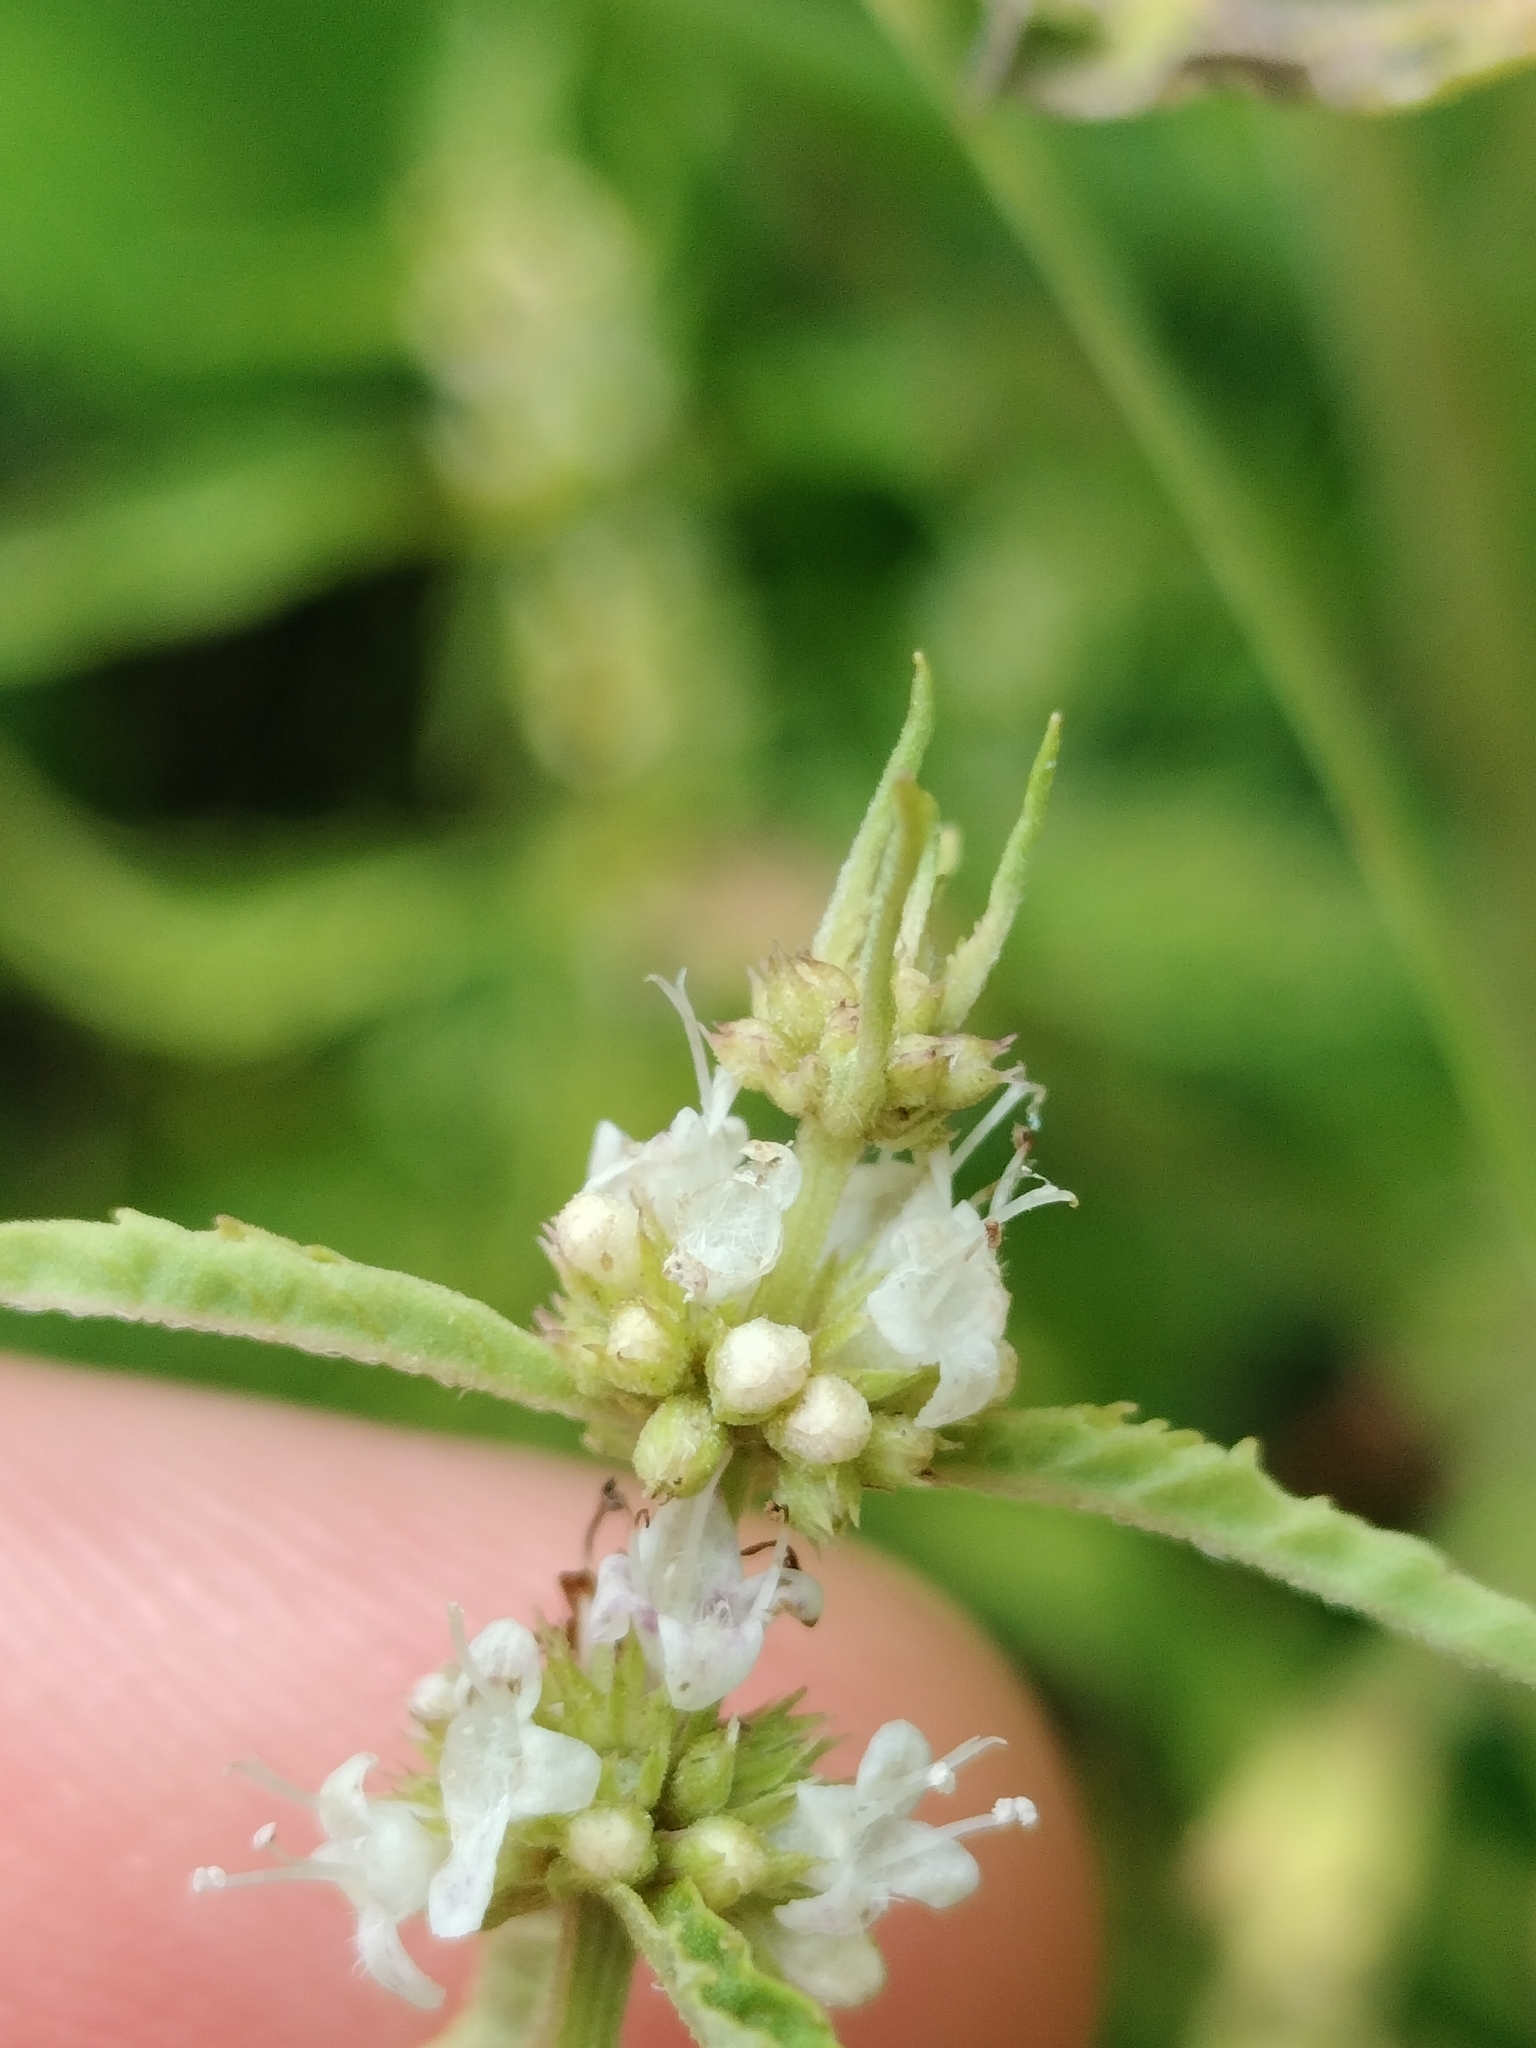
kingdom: Plantae
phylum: Tracheophyta
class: Magnoliopsida
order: Lamiales
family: Lamiaceae
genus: Lycopus
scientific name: Lycopus americanus
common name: American bugleweed
